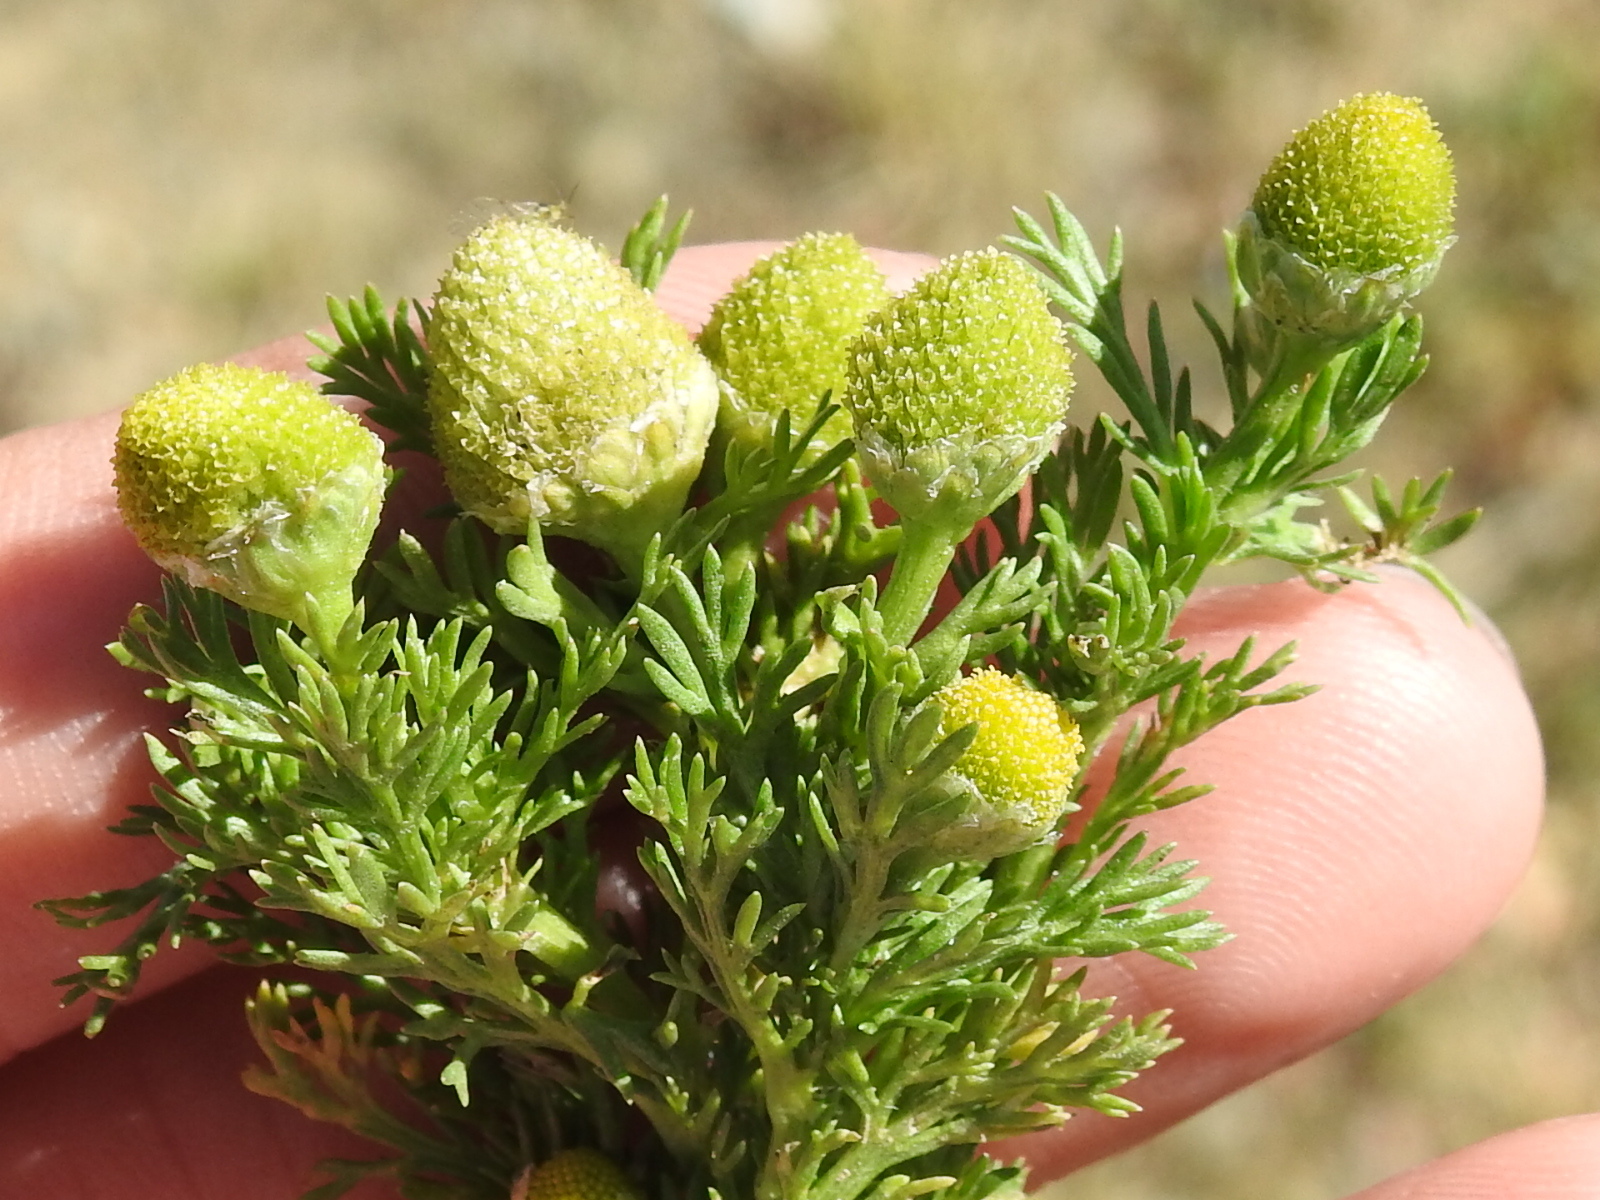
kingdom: Plantae
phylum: Tracheophyta
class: Magnoliopsida
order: Asterales
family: Asteraceae
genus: Matricaria
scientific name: Matricaria discoidea
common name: Disc mayweed
